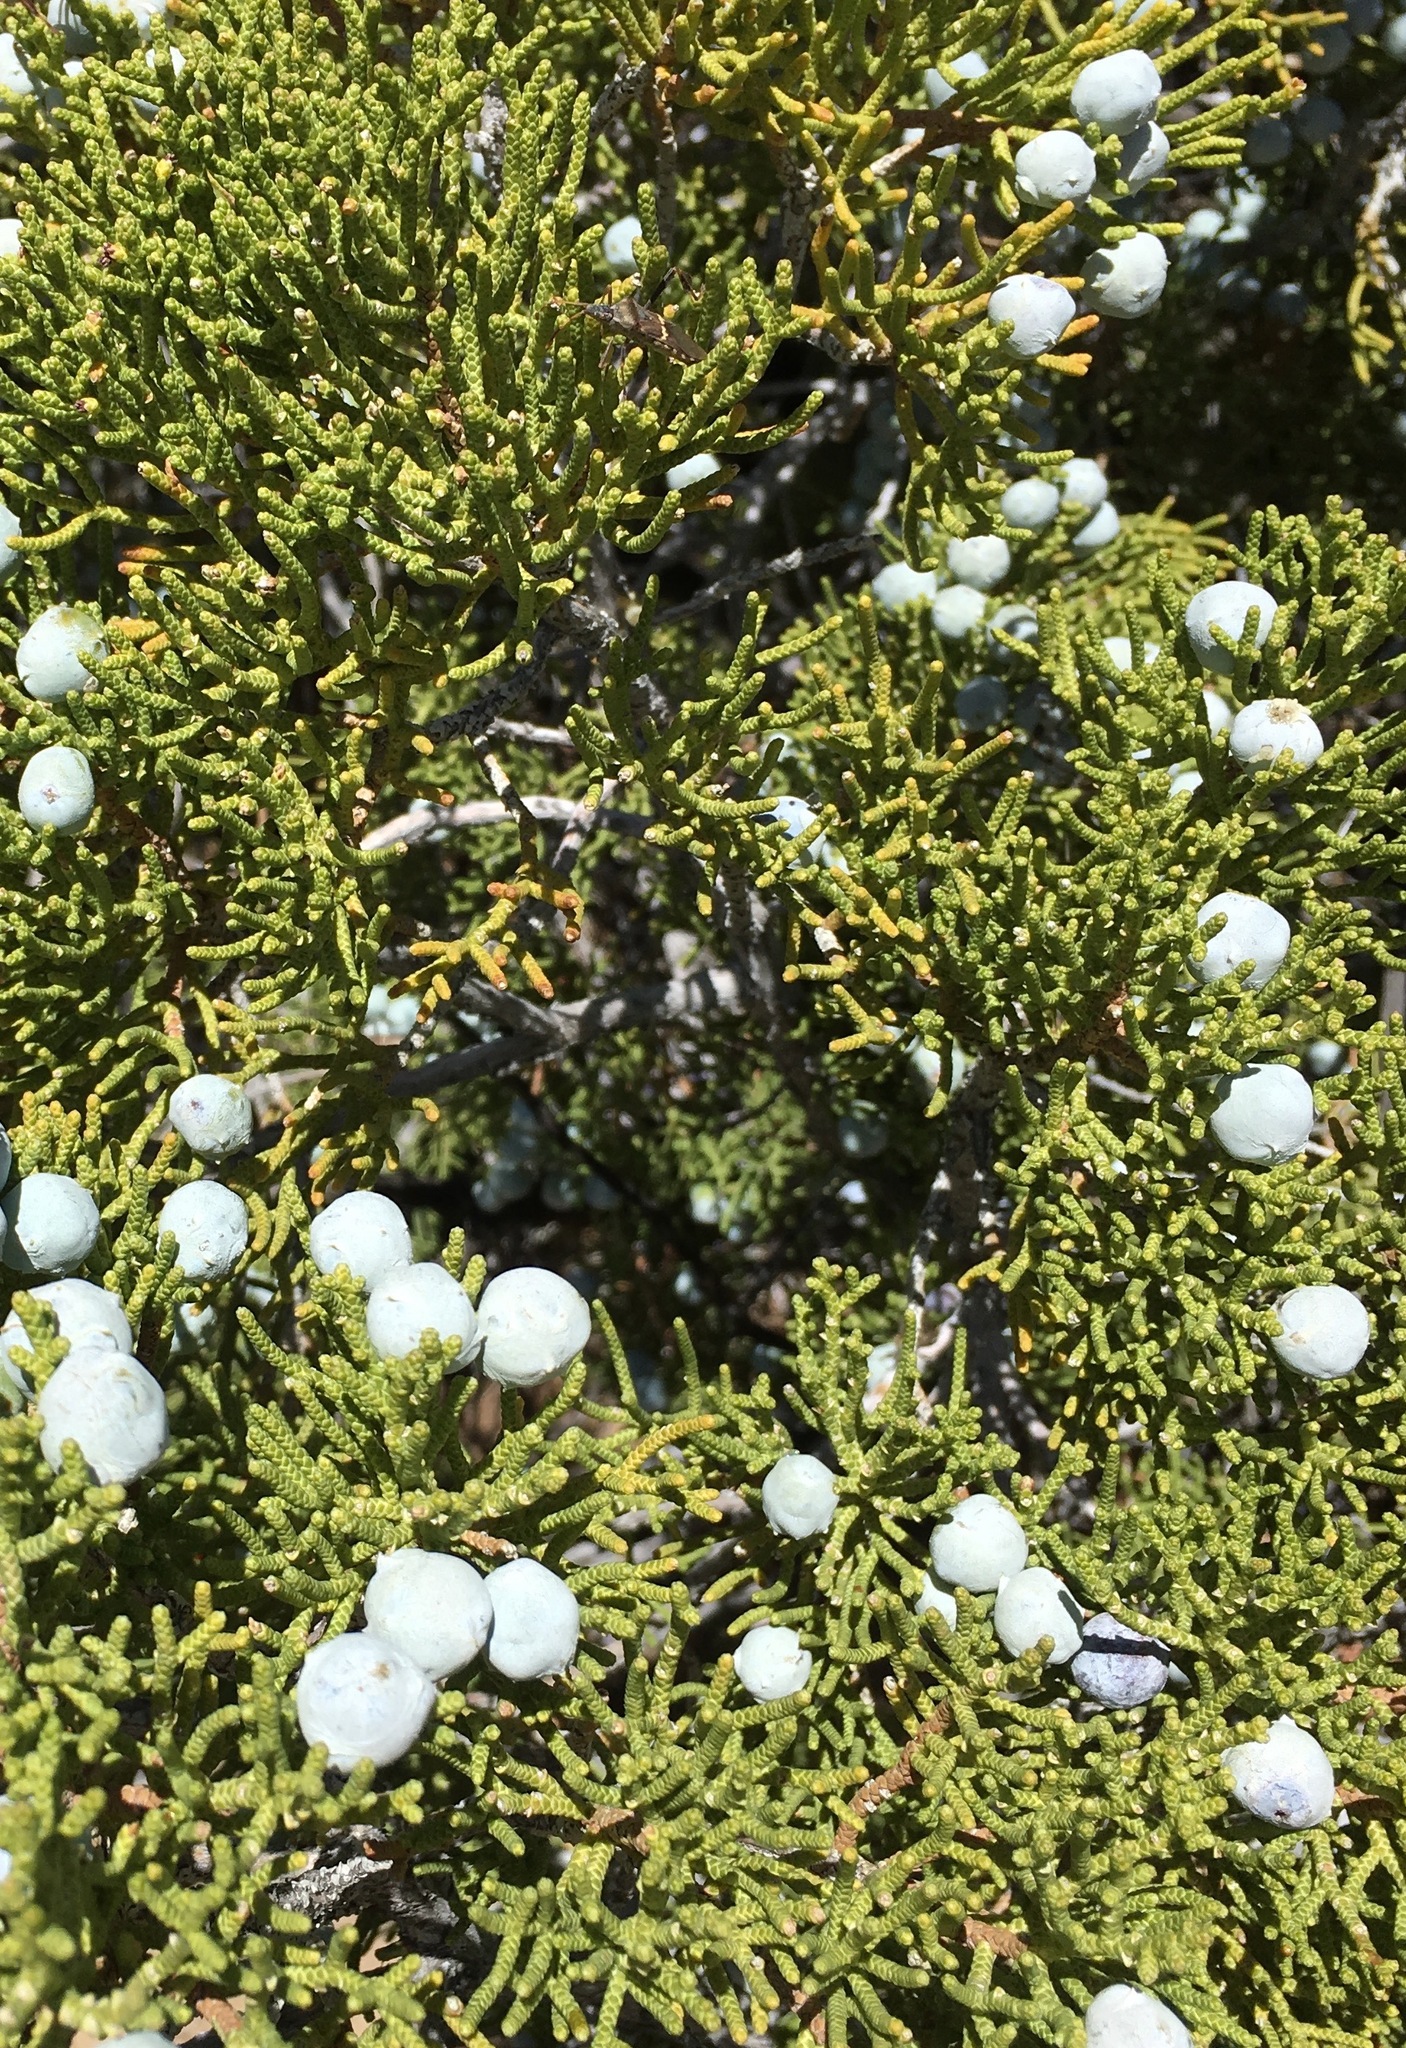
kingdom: Plantae
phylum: Tracheophyta
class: Pinopsida
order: Pinales
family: Cupressaceae
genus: Juniperus
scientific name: Juniperus californica
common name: California juniper
